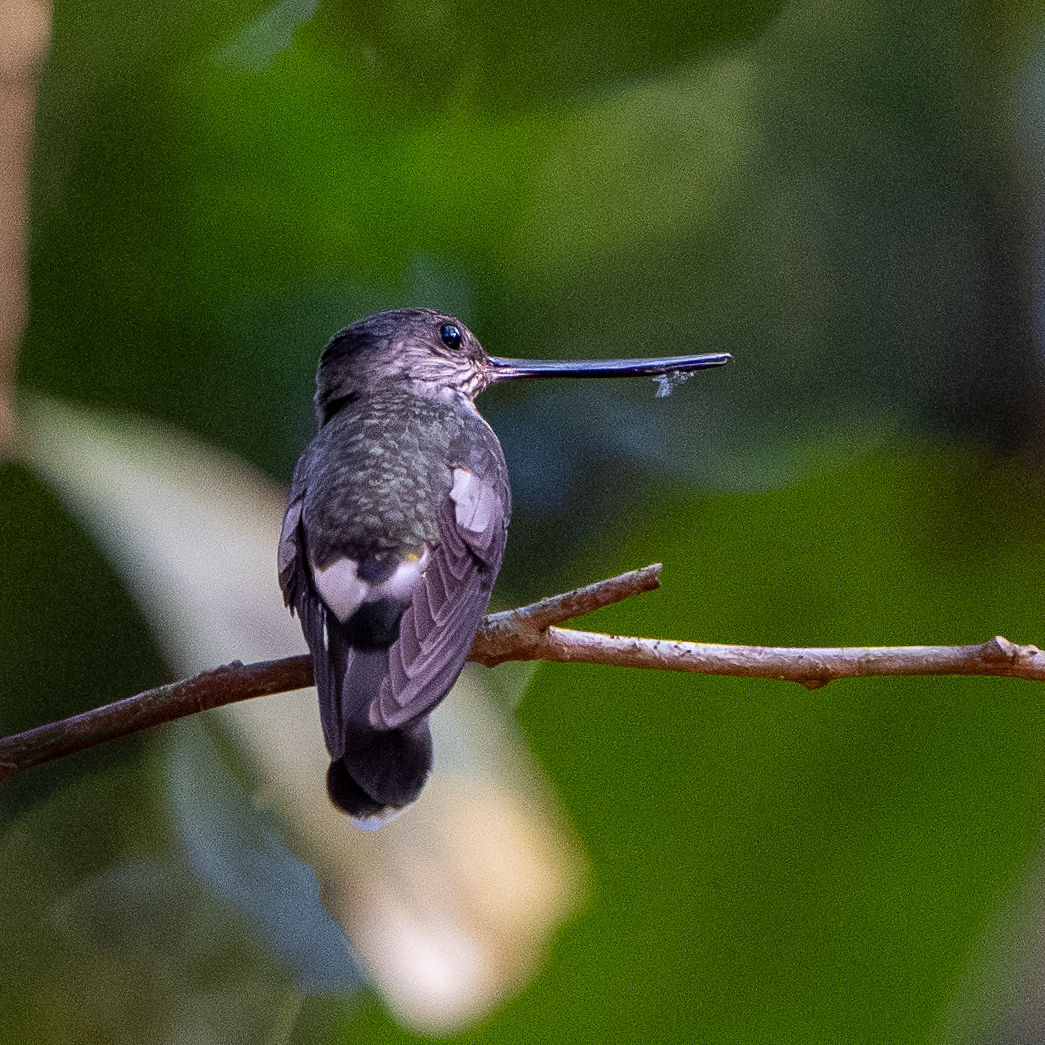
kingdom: Animalia
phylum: Chordata
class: Aves
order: Apodiformes
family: Trochilidae
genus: Androdon
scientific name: Androdon aequatorialis
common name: Tooth-billed hummingbird
